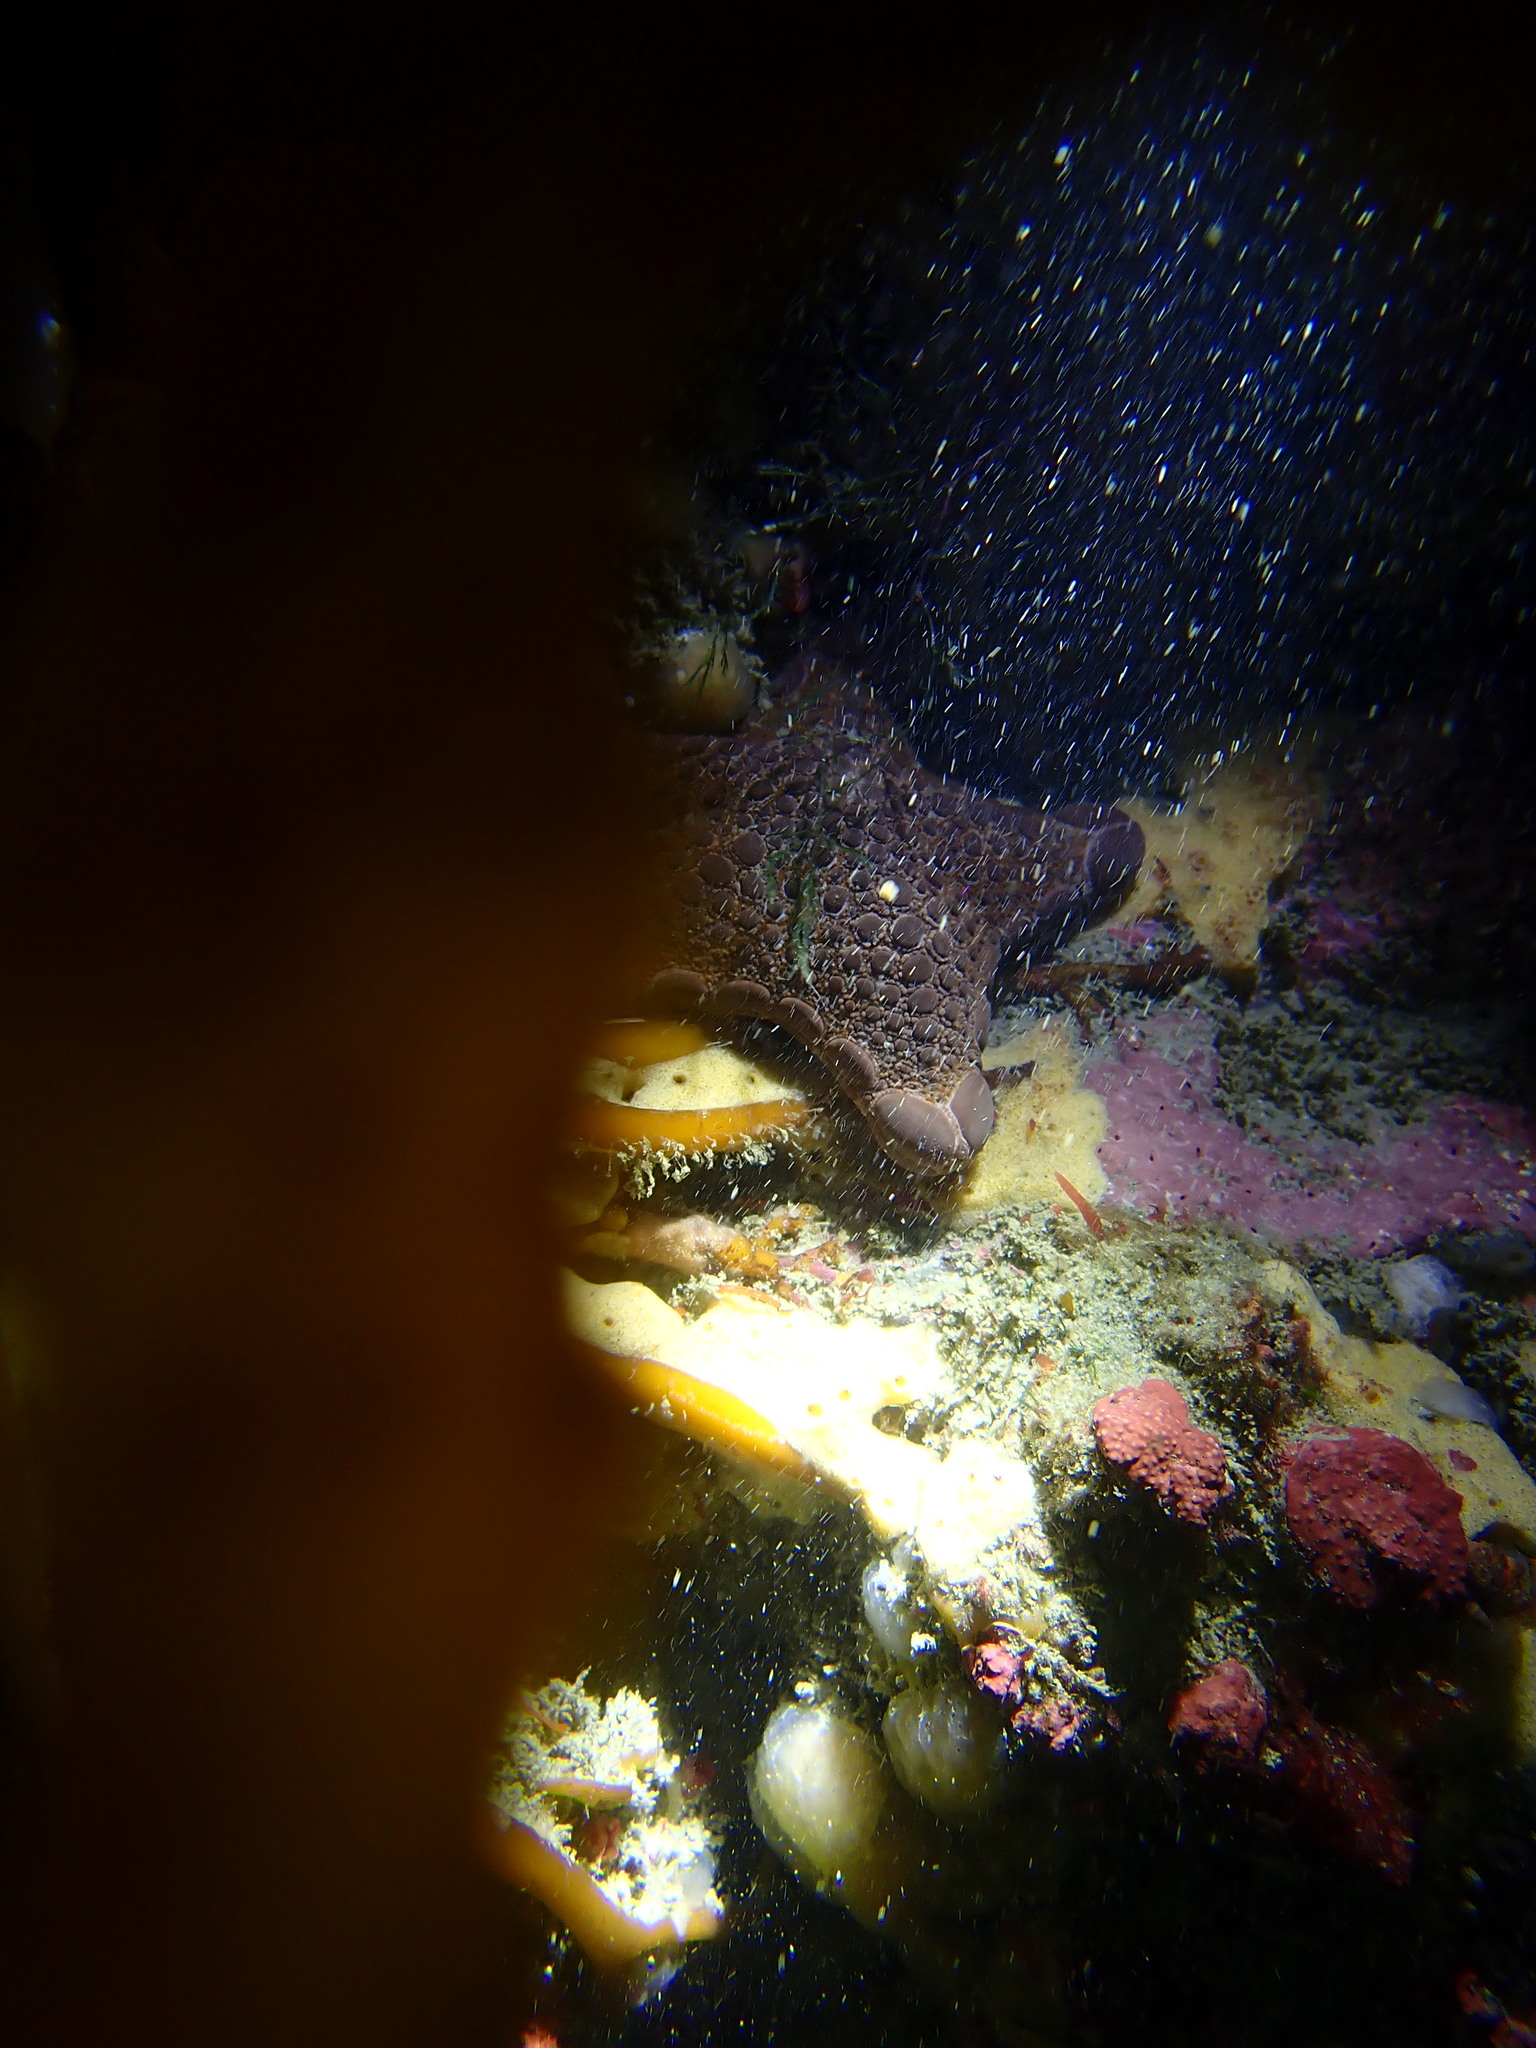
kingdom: Animalia
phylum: Echinodermata
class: Asteroidea
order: Valvatida
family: Goniasteridae
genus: Pentagonaster
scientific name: Pentagonaster pulchellus
